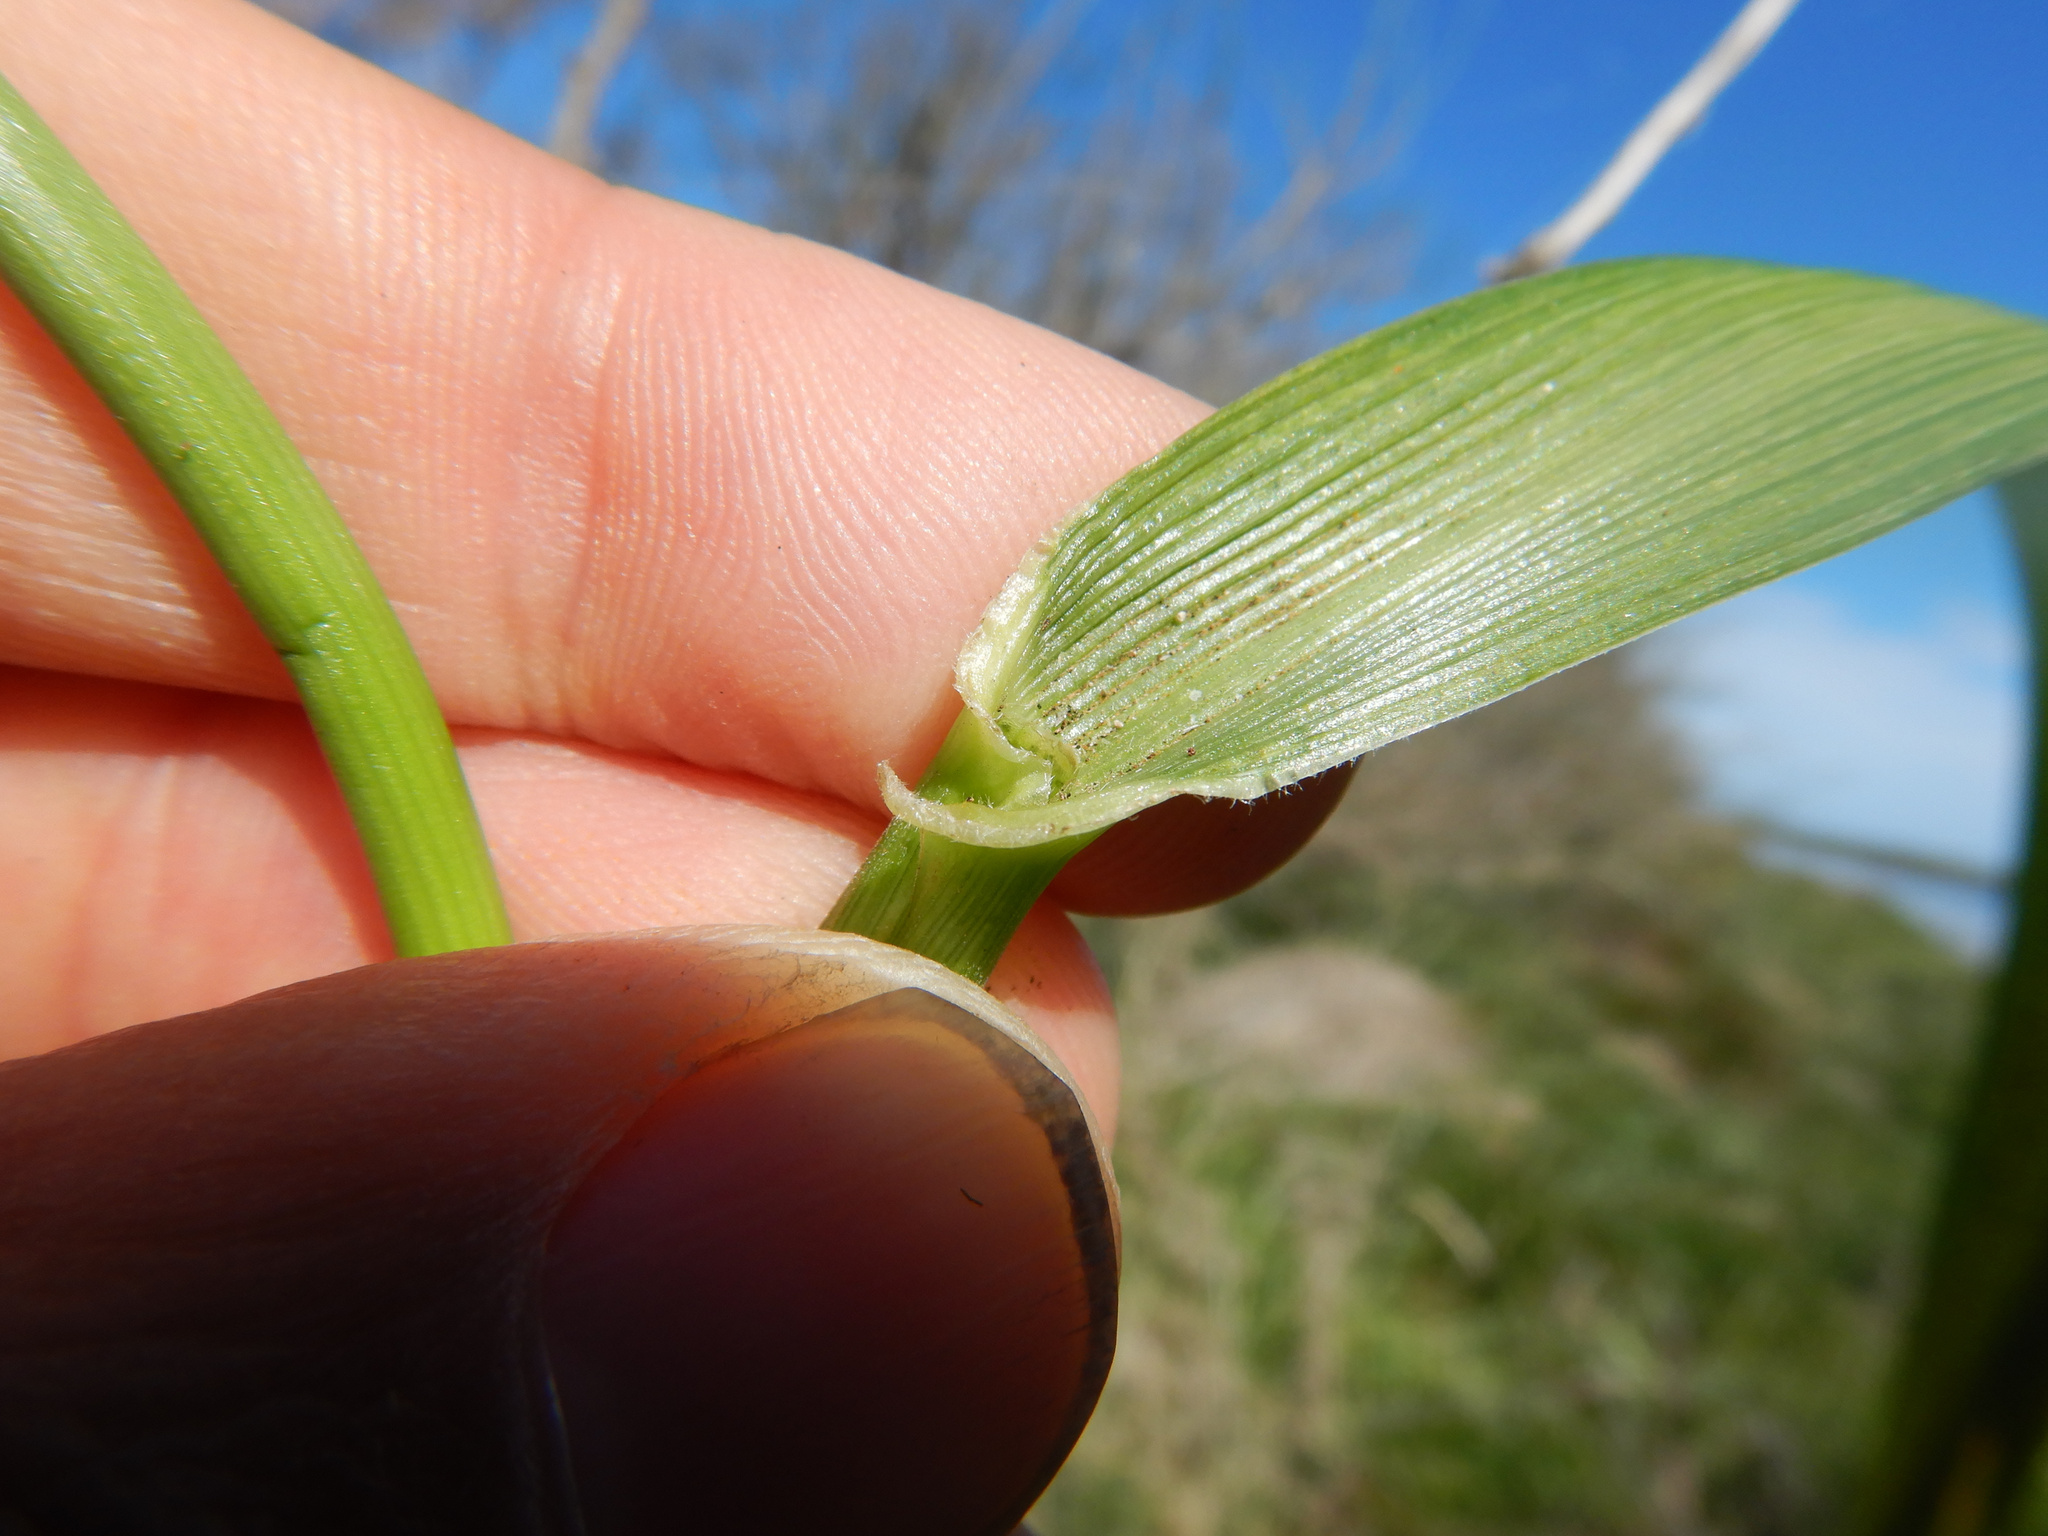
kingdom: Plantae
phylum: Tracheophyta
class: Liliopsida
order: Poales
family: Poaceae
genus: Lolium
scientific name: Lolium arundinaceum
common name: Reed fescue
